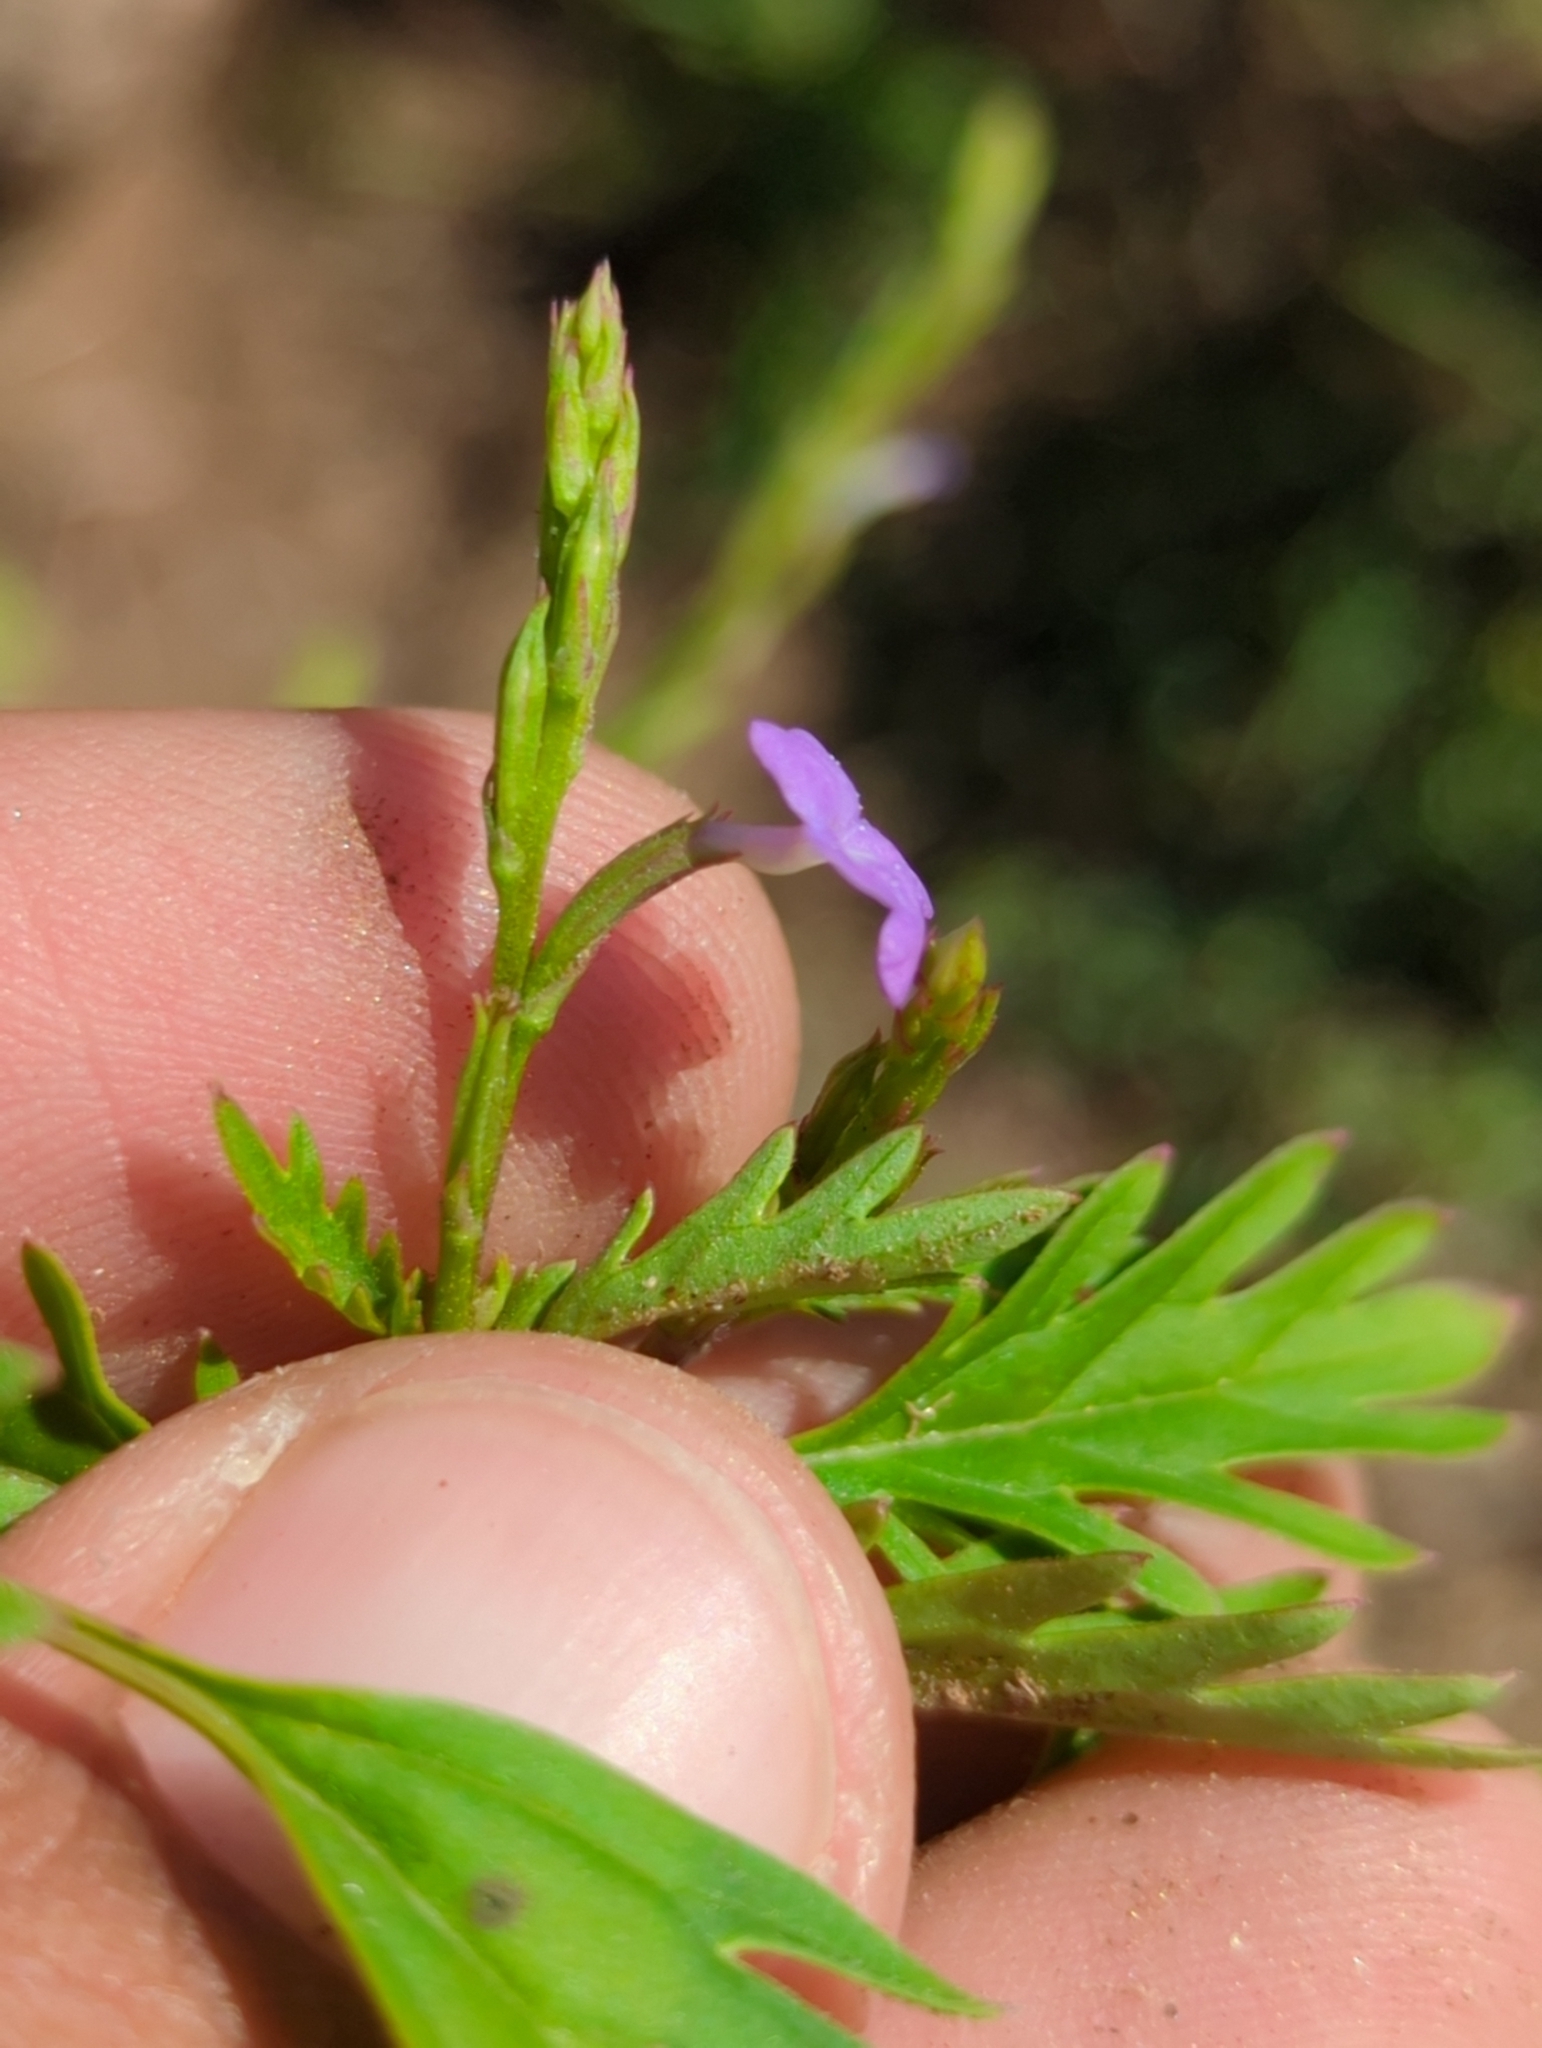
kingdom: Plantae
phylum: Tracheophyta
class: Magnoliopsida
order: Lamiales
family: Verbenaceae
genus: Bouchea
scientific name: Bouchea dissecta
